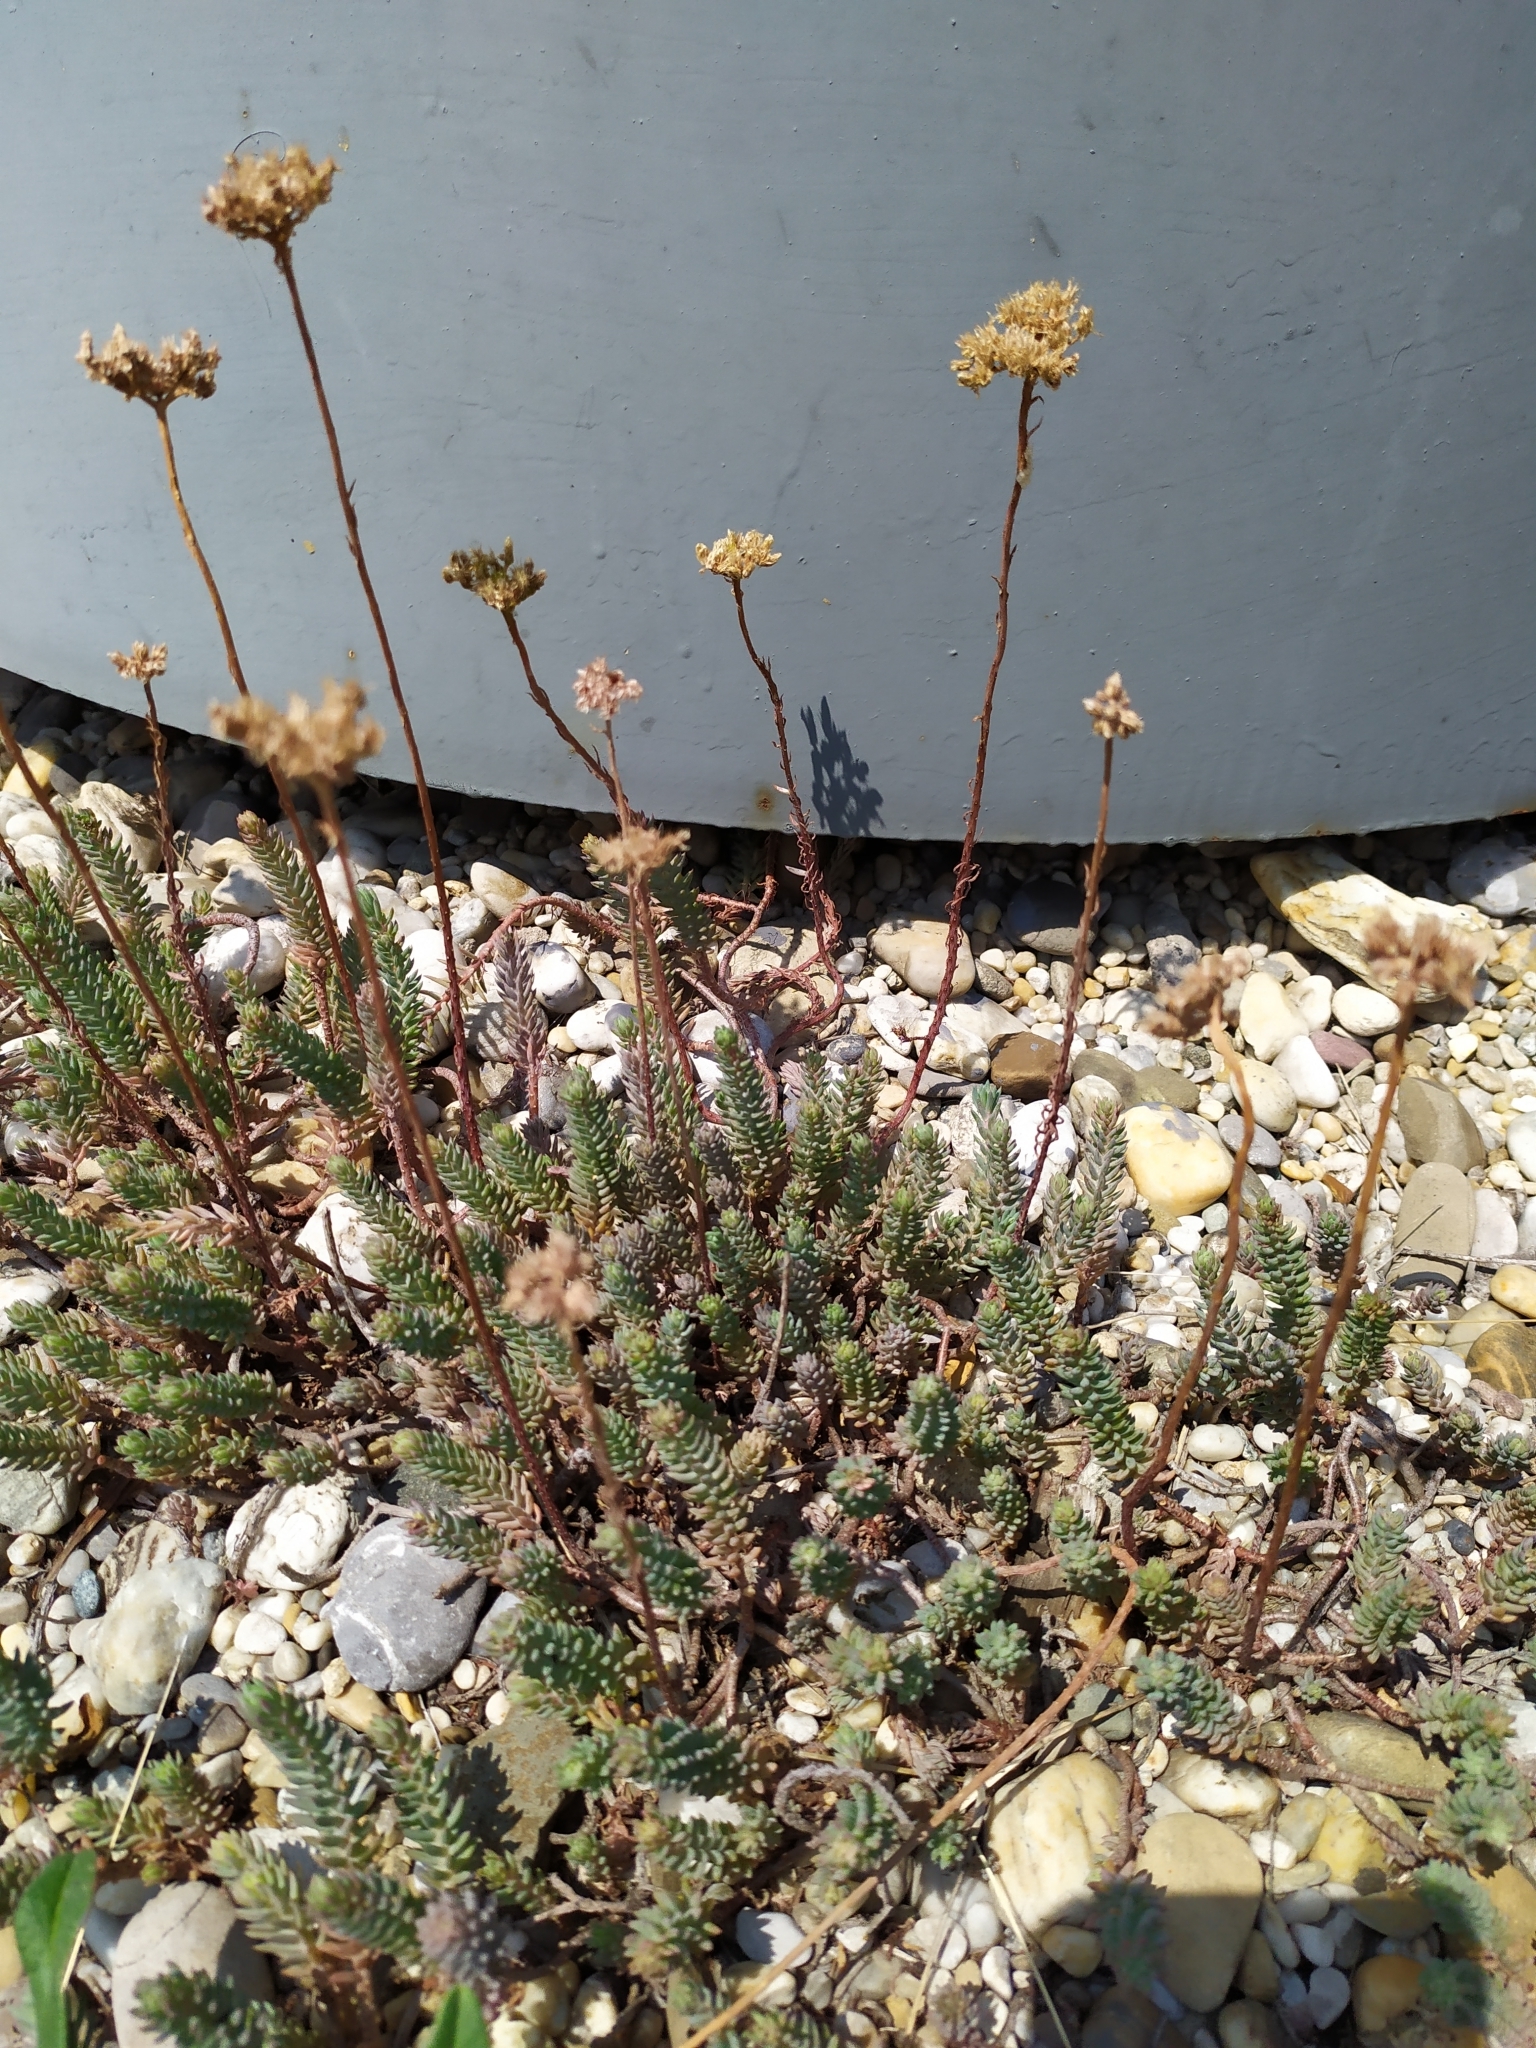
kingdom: Plantae
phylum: Tracheophyta
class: Magnoliopsida
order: Saxifragales
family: Crassulaceae
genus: Petrosedum
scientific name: Petrosedum orientale
